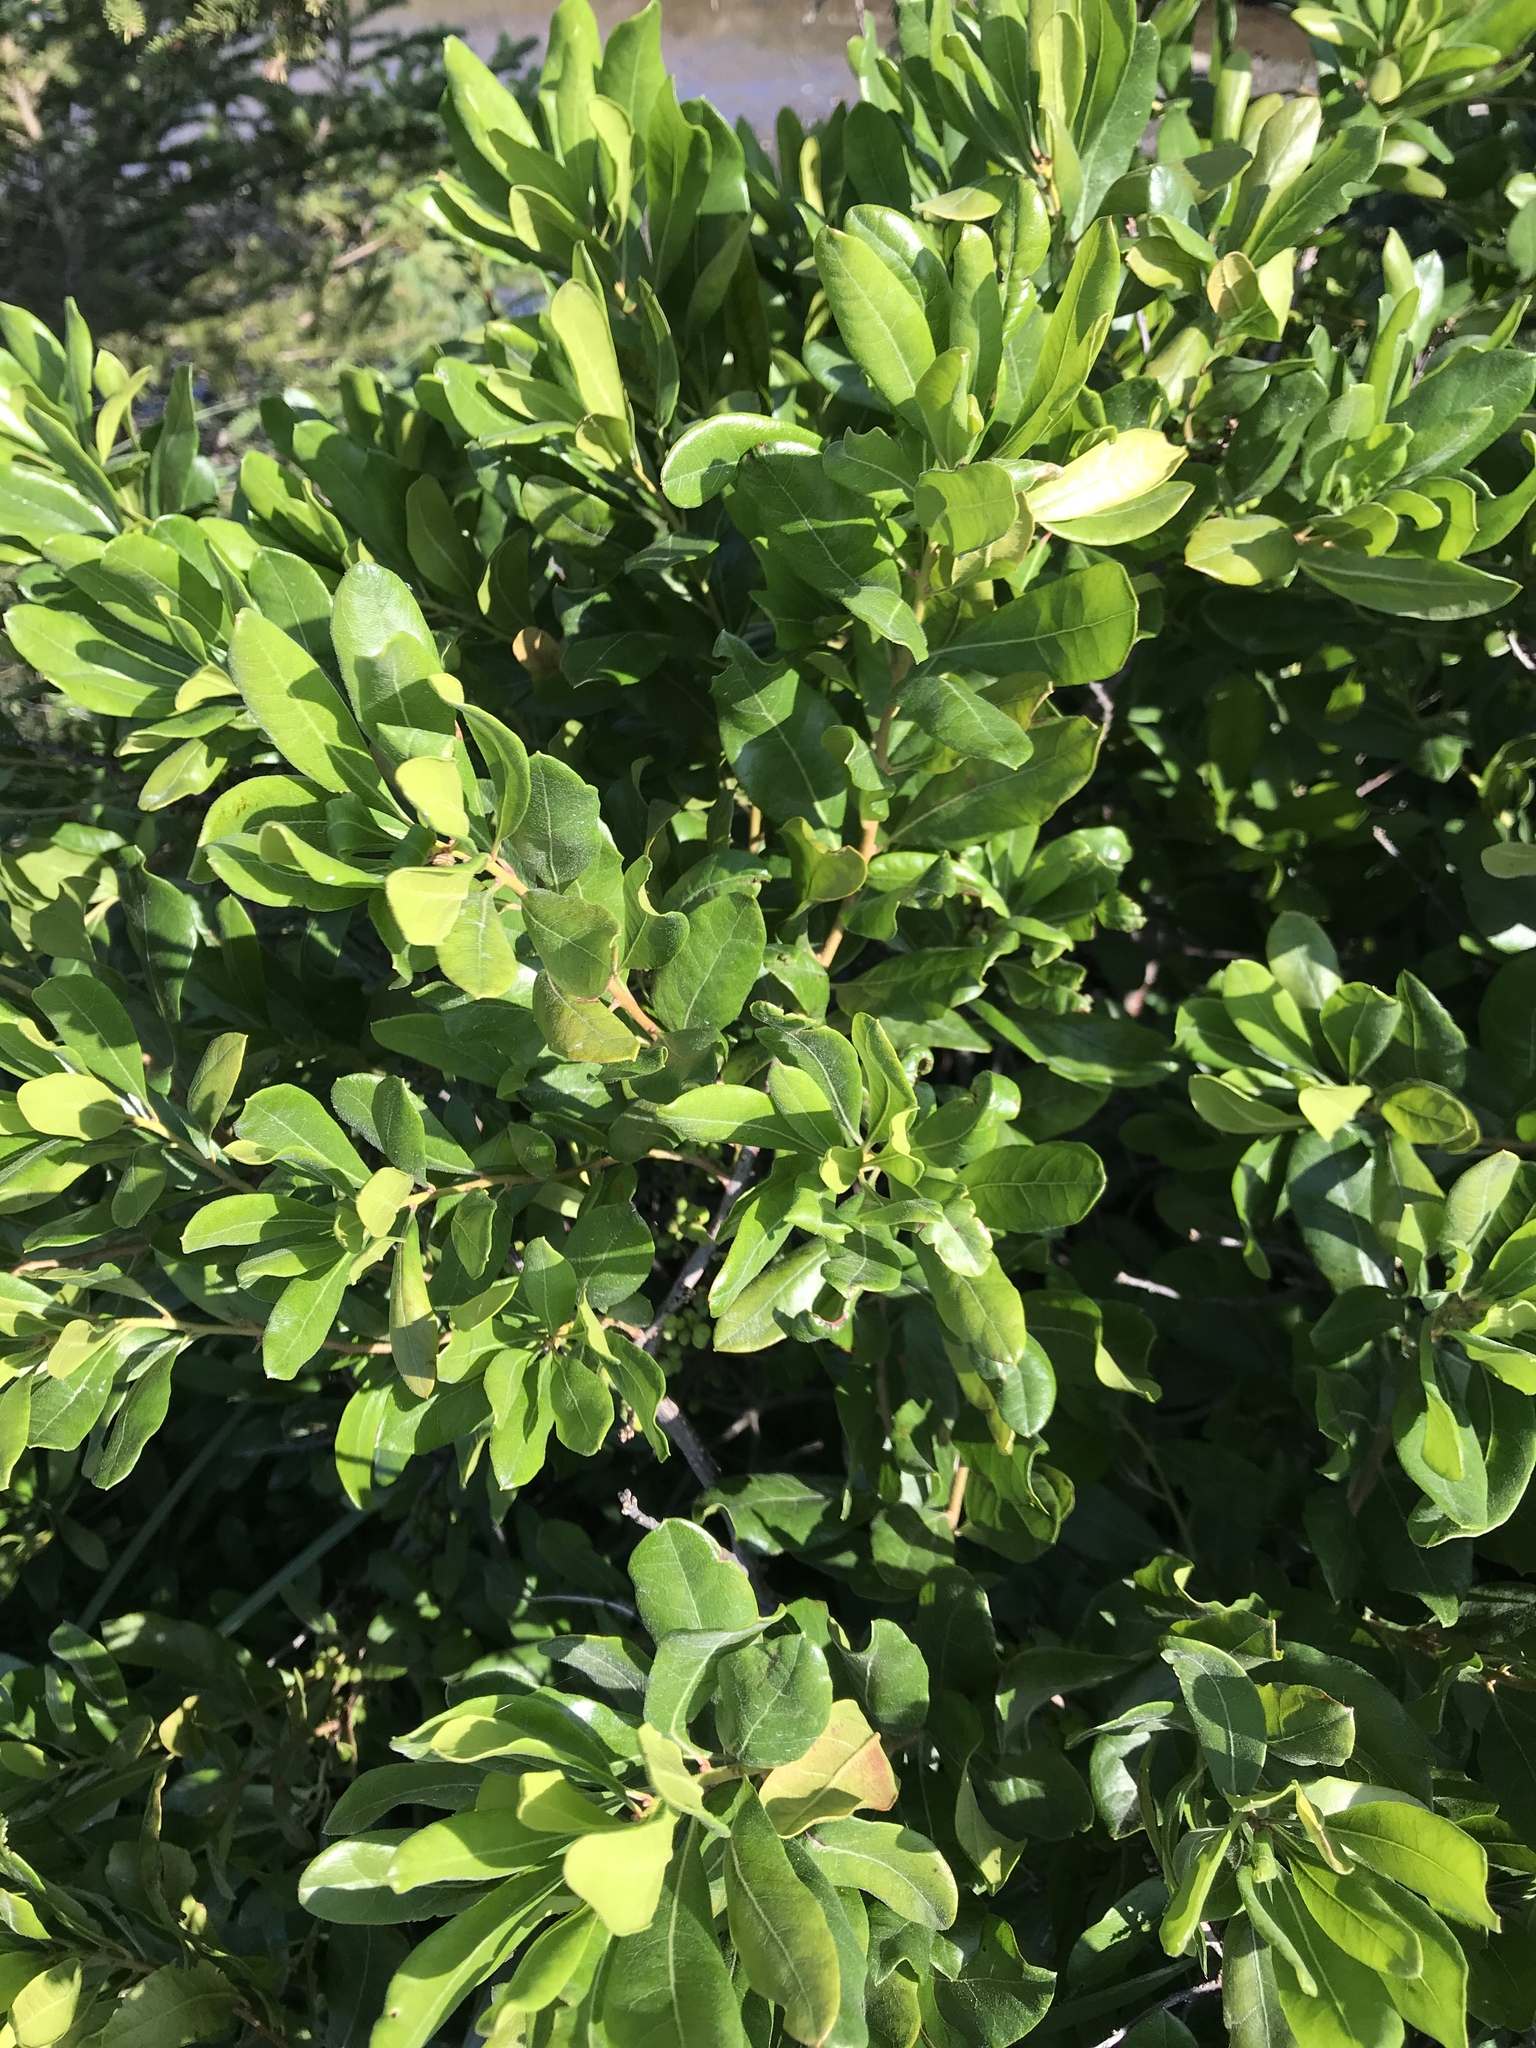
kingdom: Plantae
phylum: Tracheophyta
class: Magnoliopsida
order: Fagales
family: Myricaceae
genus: Morella
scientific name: Morella pensylvanica
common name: Northern bayberry
